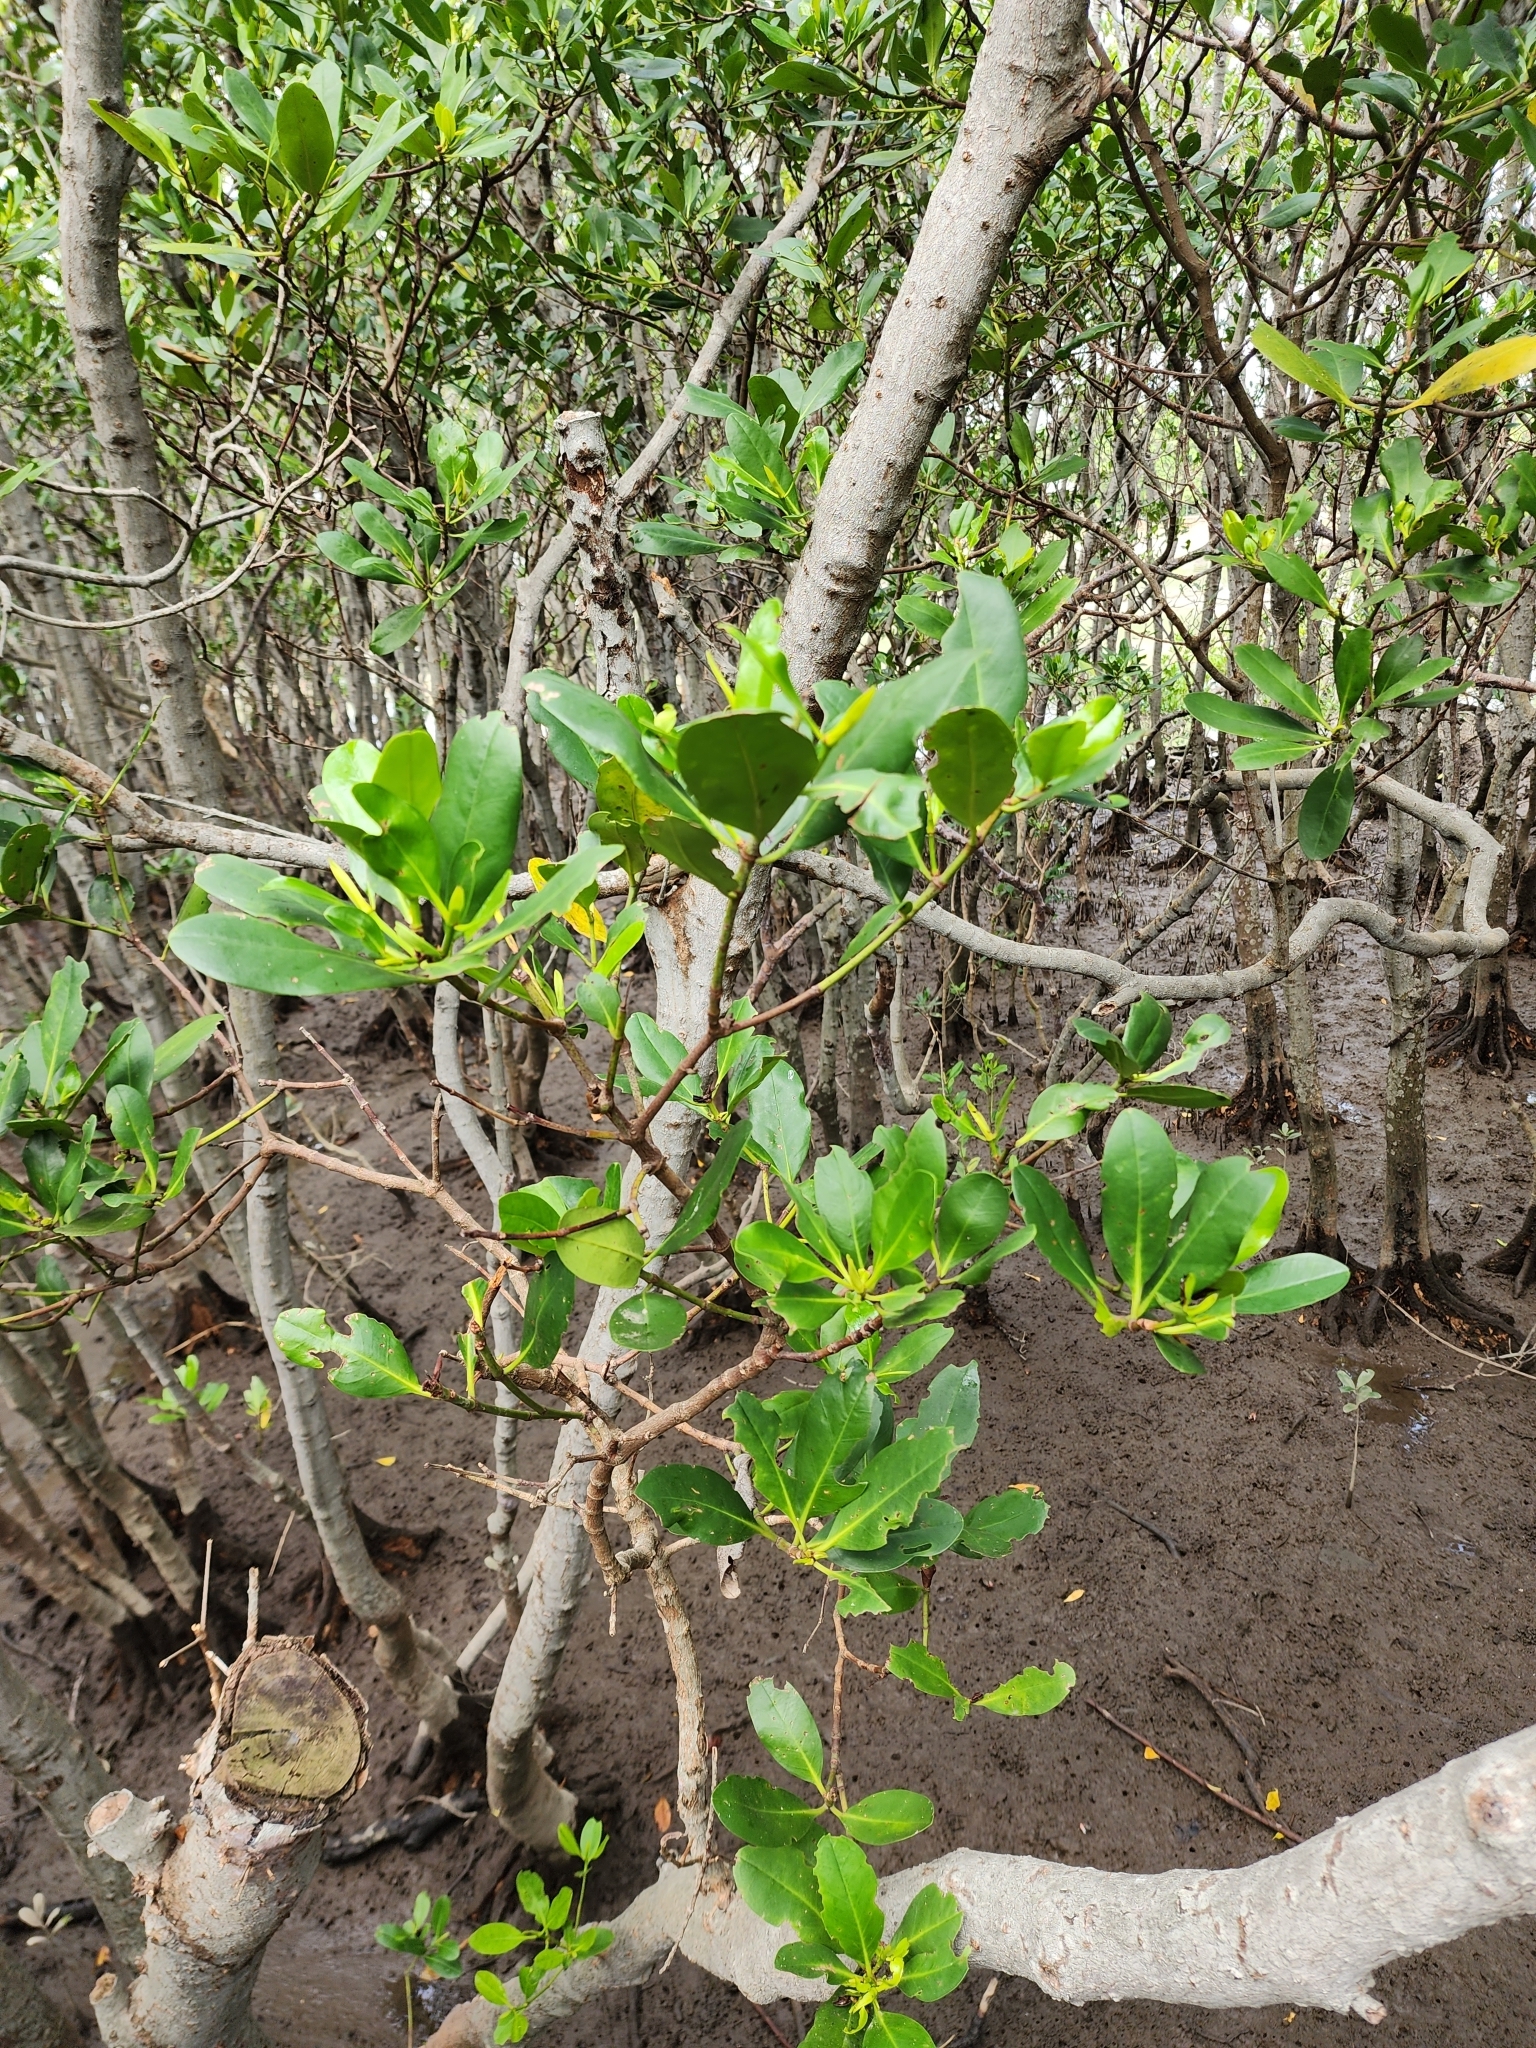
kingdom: Plantae
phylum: Tracheophyta
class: Magnoliopsida
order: Malpighiales
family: Rhizophoraceae
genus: Kandelia
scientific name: Kandelia obovata
